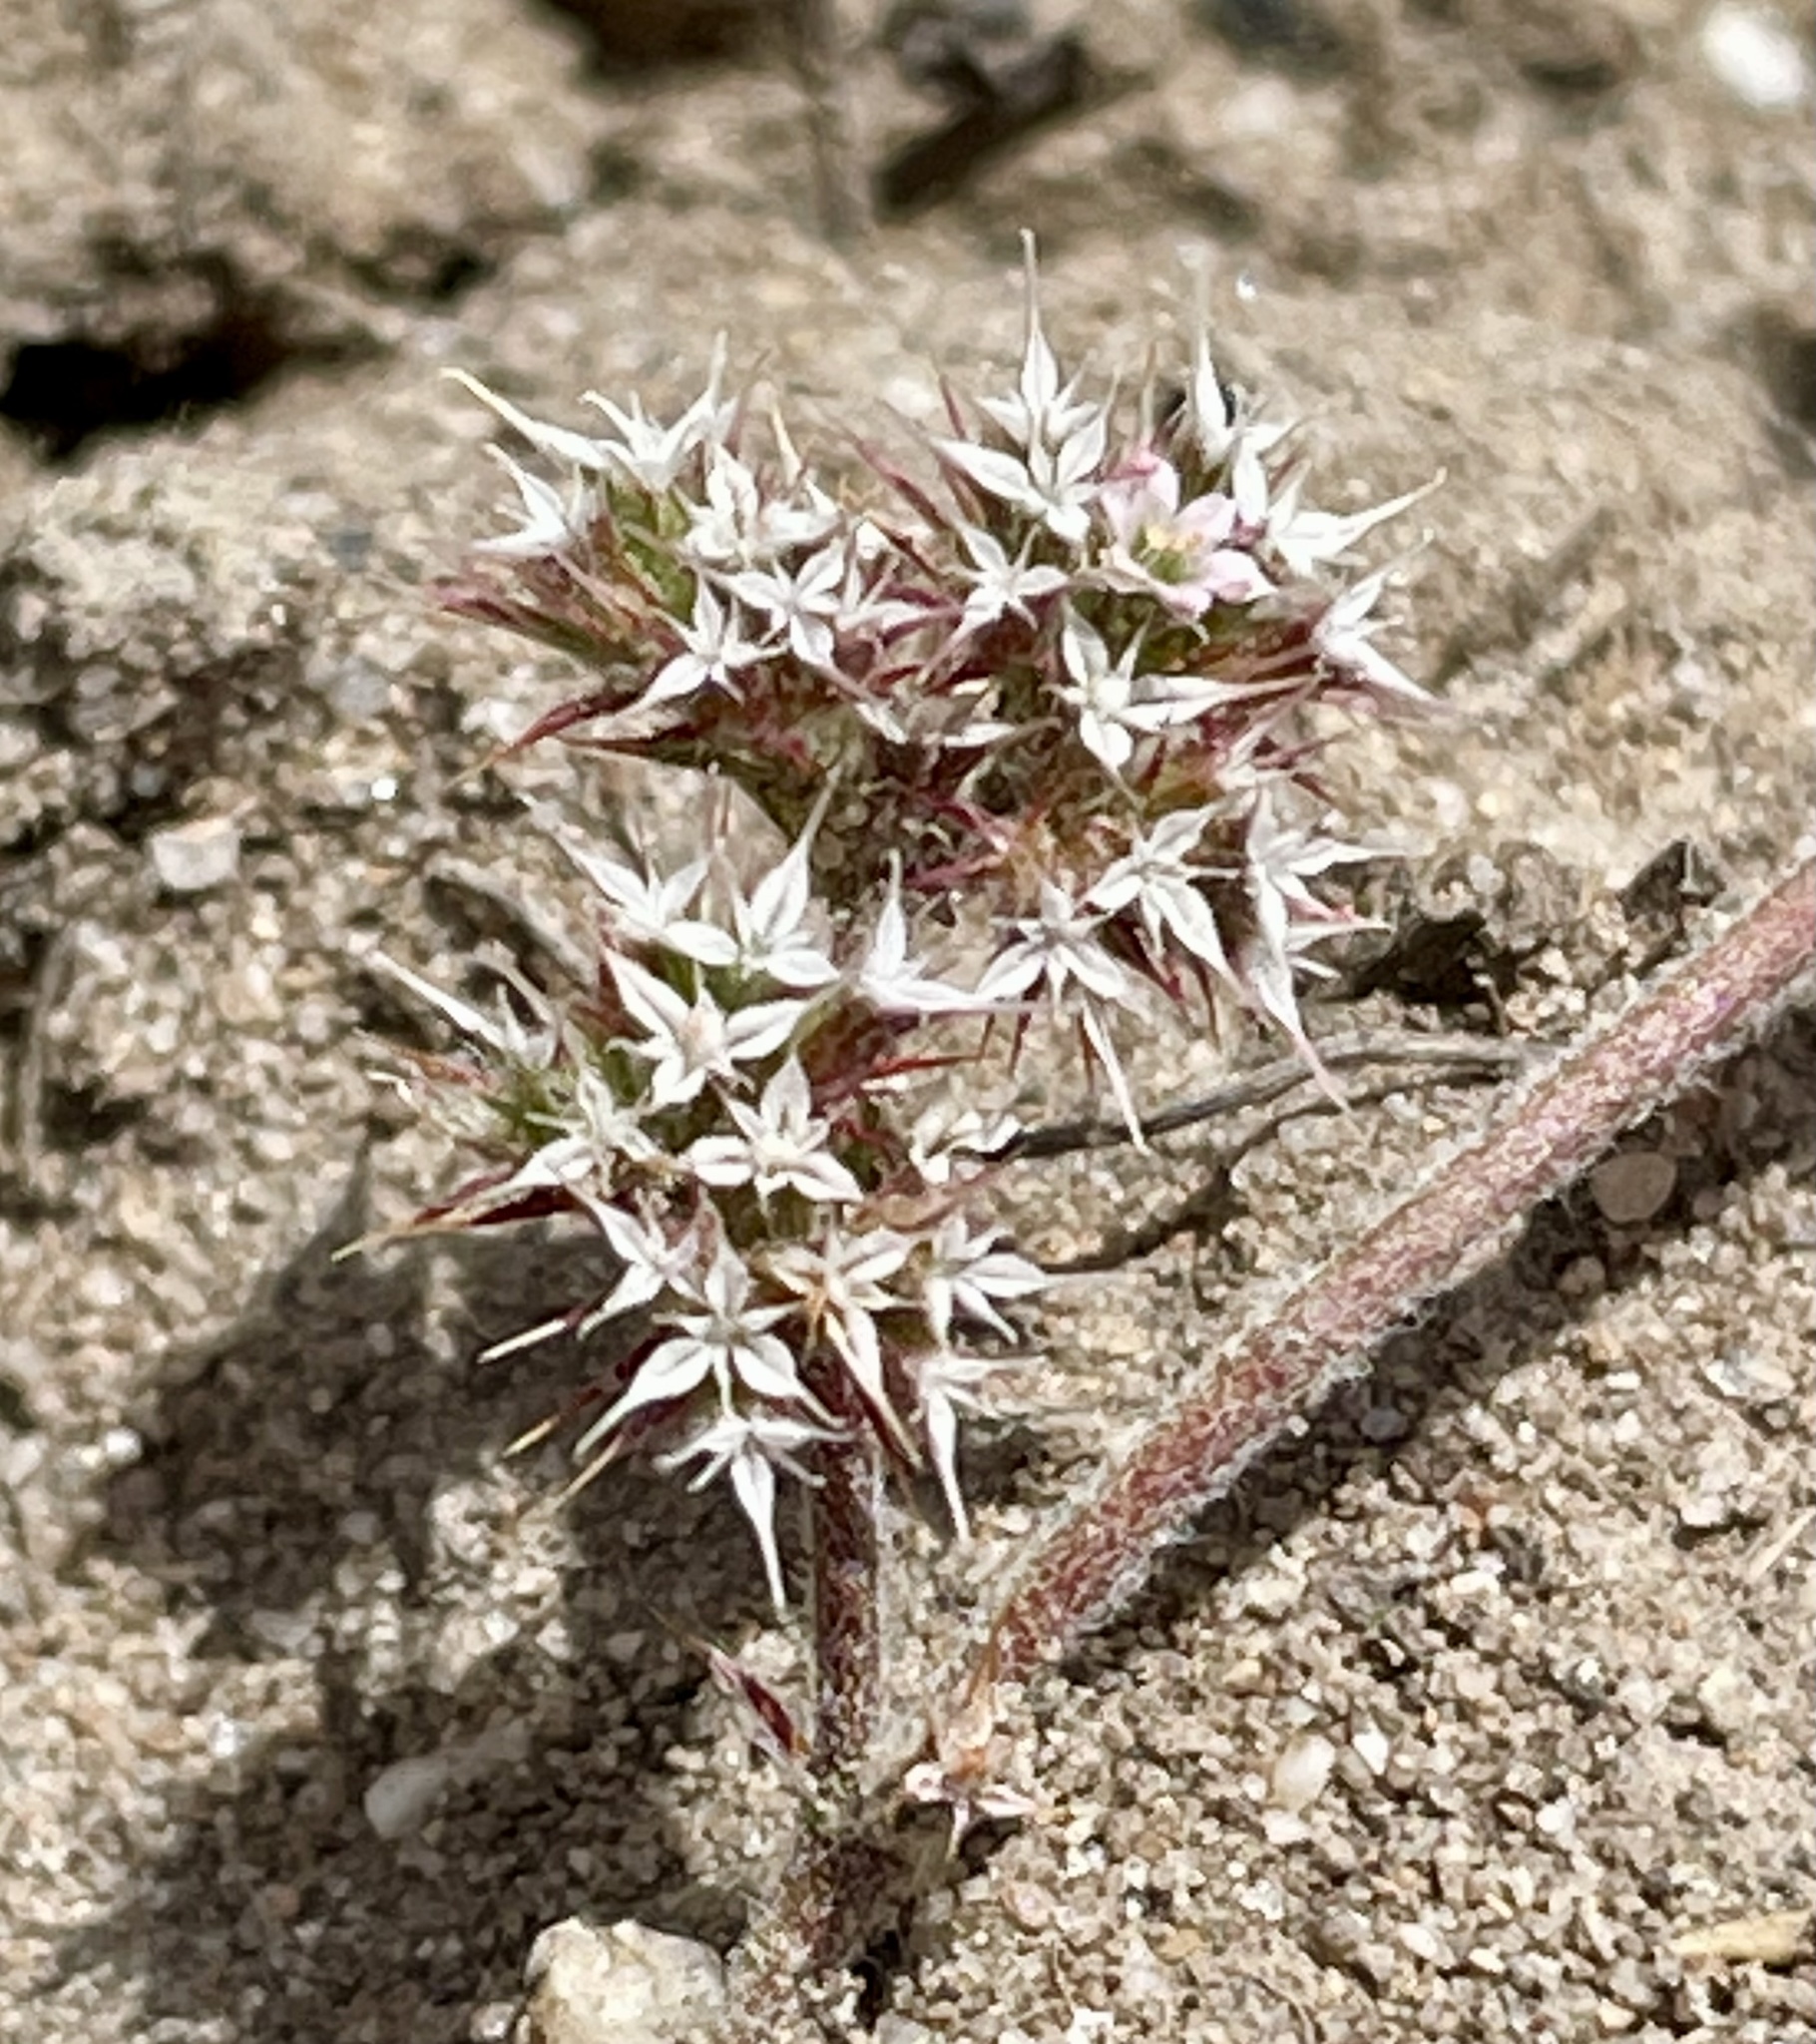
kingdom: Plantae
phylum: Tracheophyta
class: Magnoliopsida
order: Caryophyllales
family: Polygonaceae
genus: Chorizanthe
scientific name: Chorizanthe pungens
